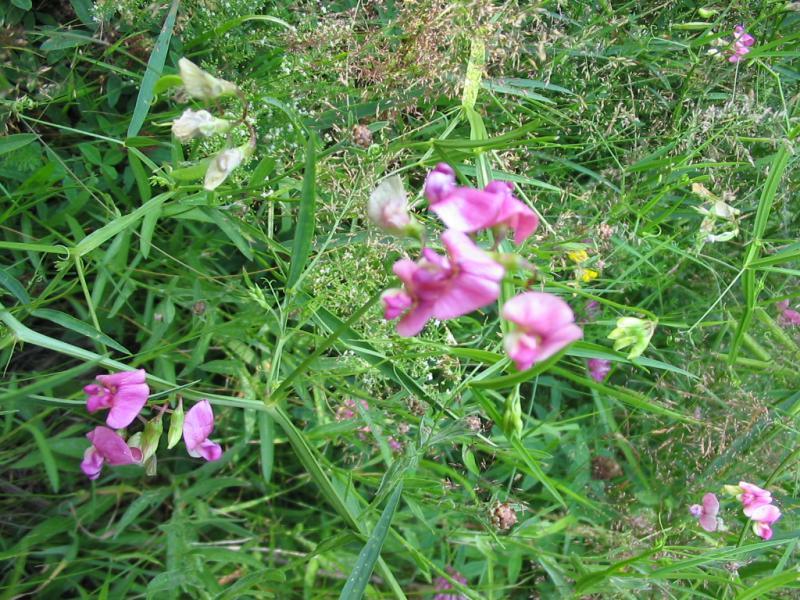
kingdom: Plantae
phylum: Tracheophyta
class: Magnoliopsida
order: Fabales
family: Fabaceae
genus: Lathyrus
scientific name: Lathyrus sylvestris
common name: Flat pea
